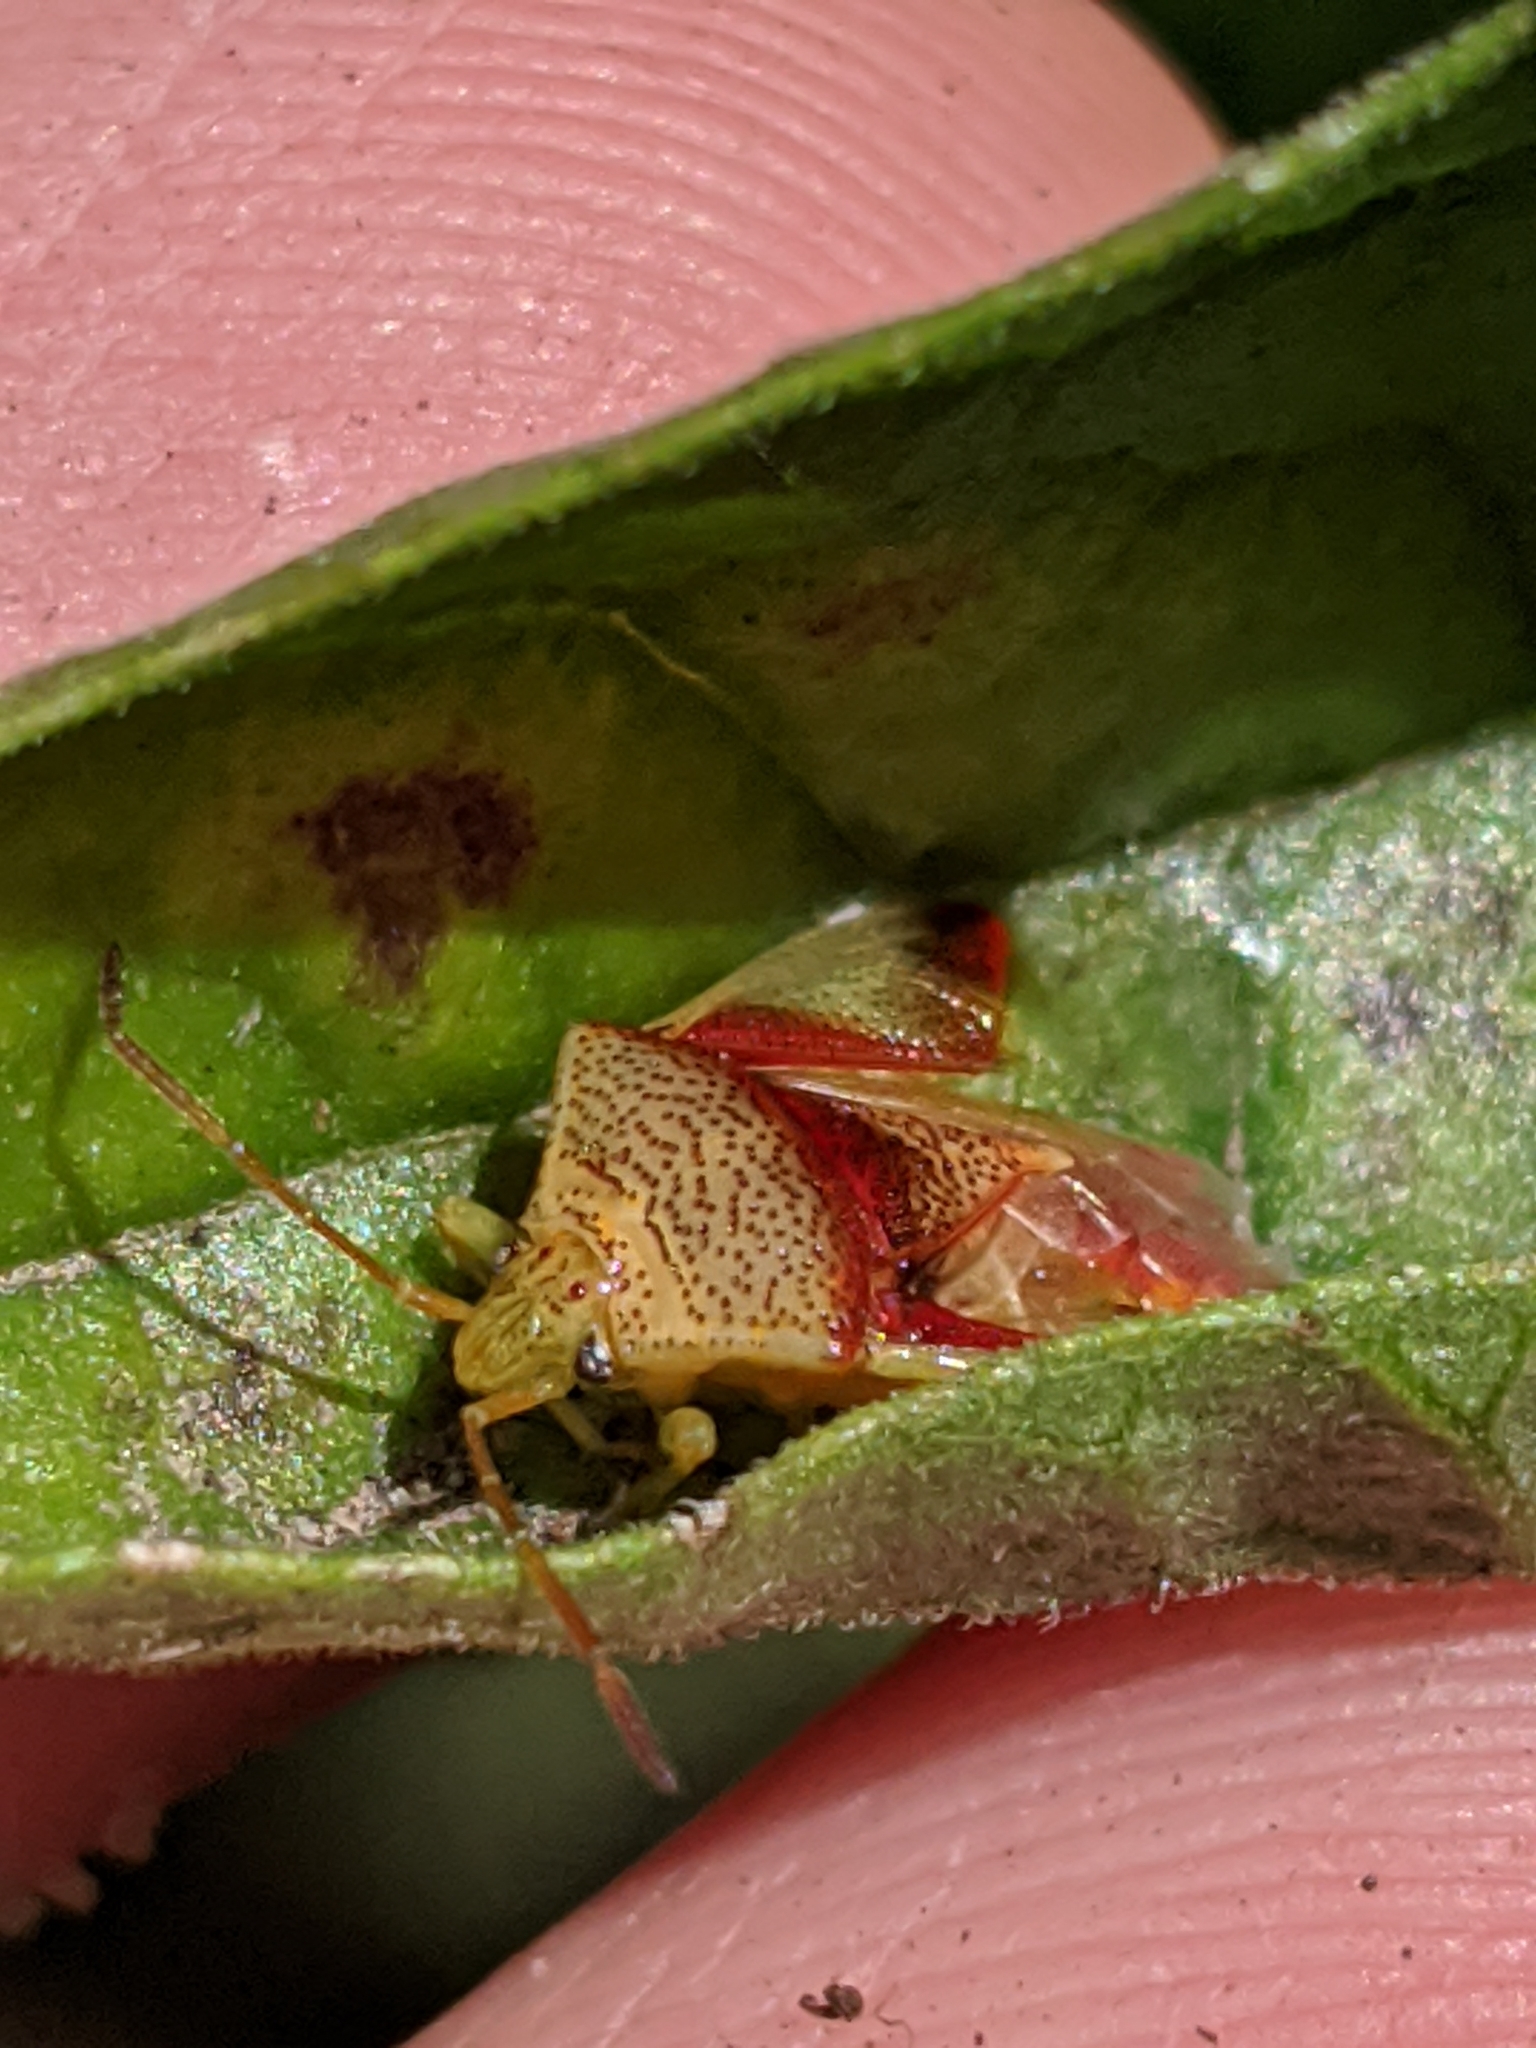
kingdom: Animalia
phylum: Arthropoda
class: Insecta
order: Hemiptera
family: Acanthosomatidae
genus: Elasmostethus
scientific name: Elasmostethus cruciatus
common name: Red-cross shield bug
